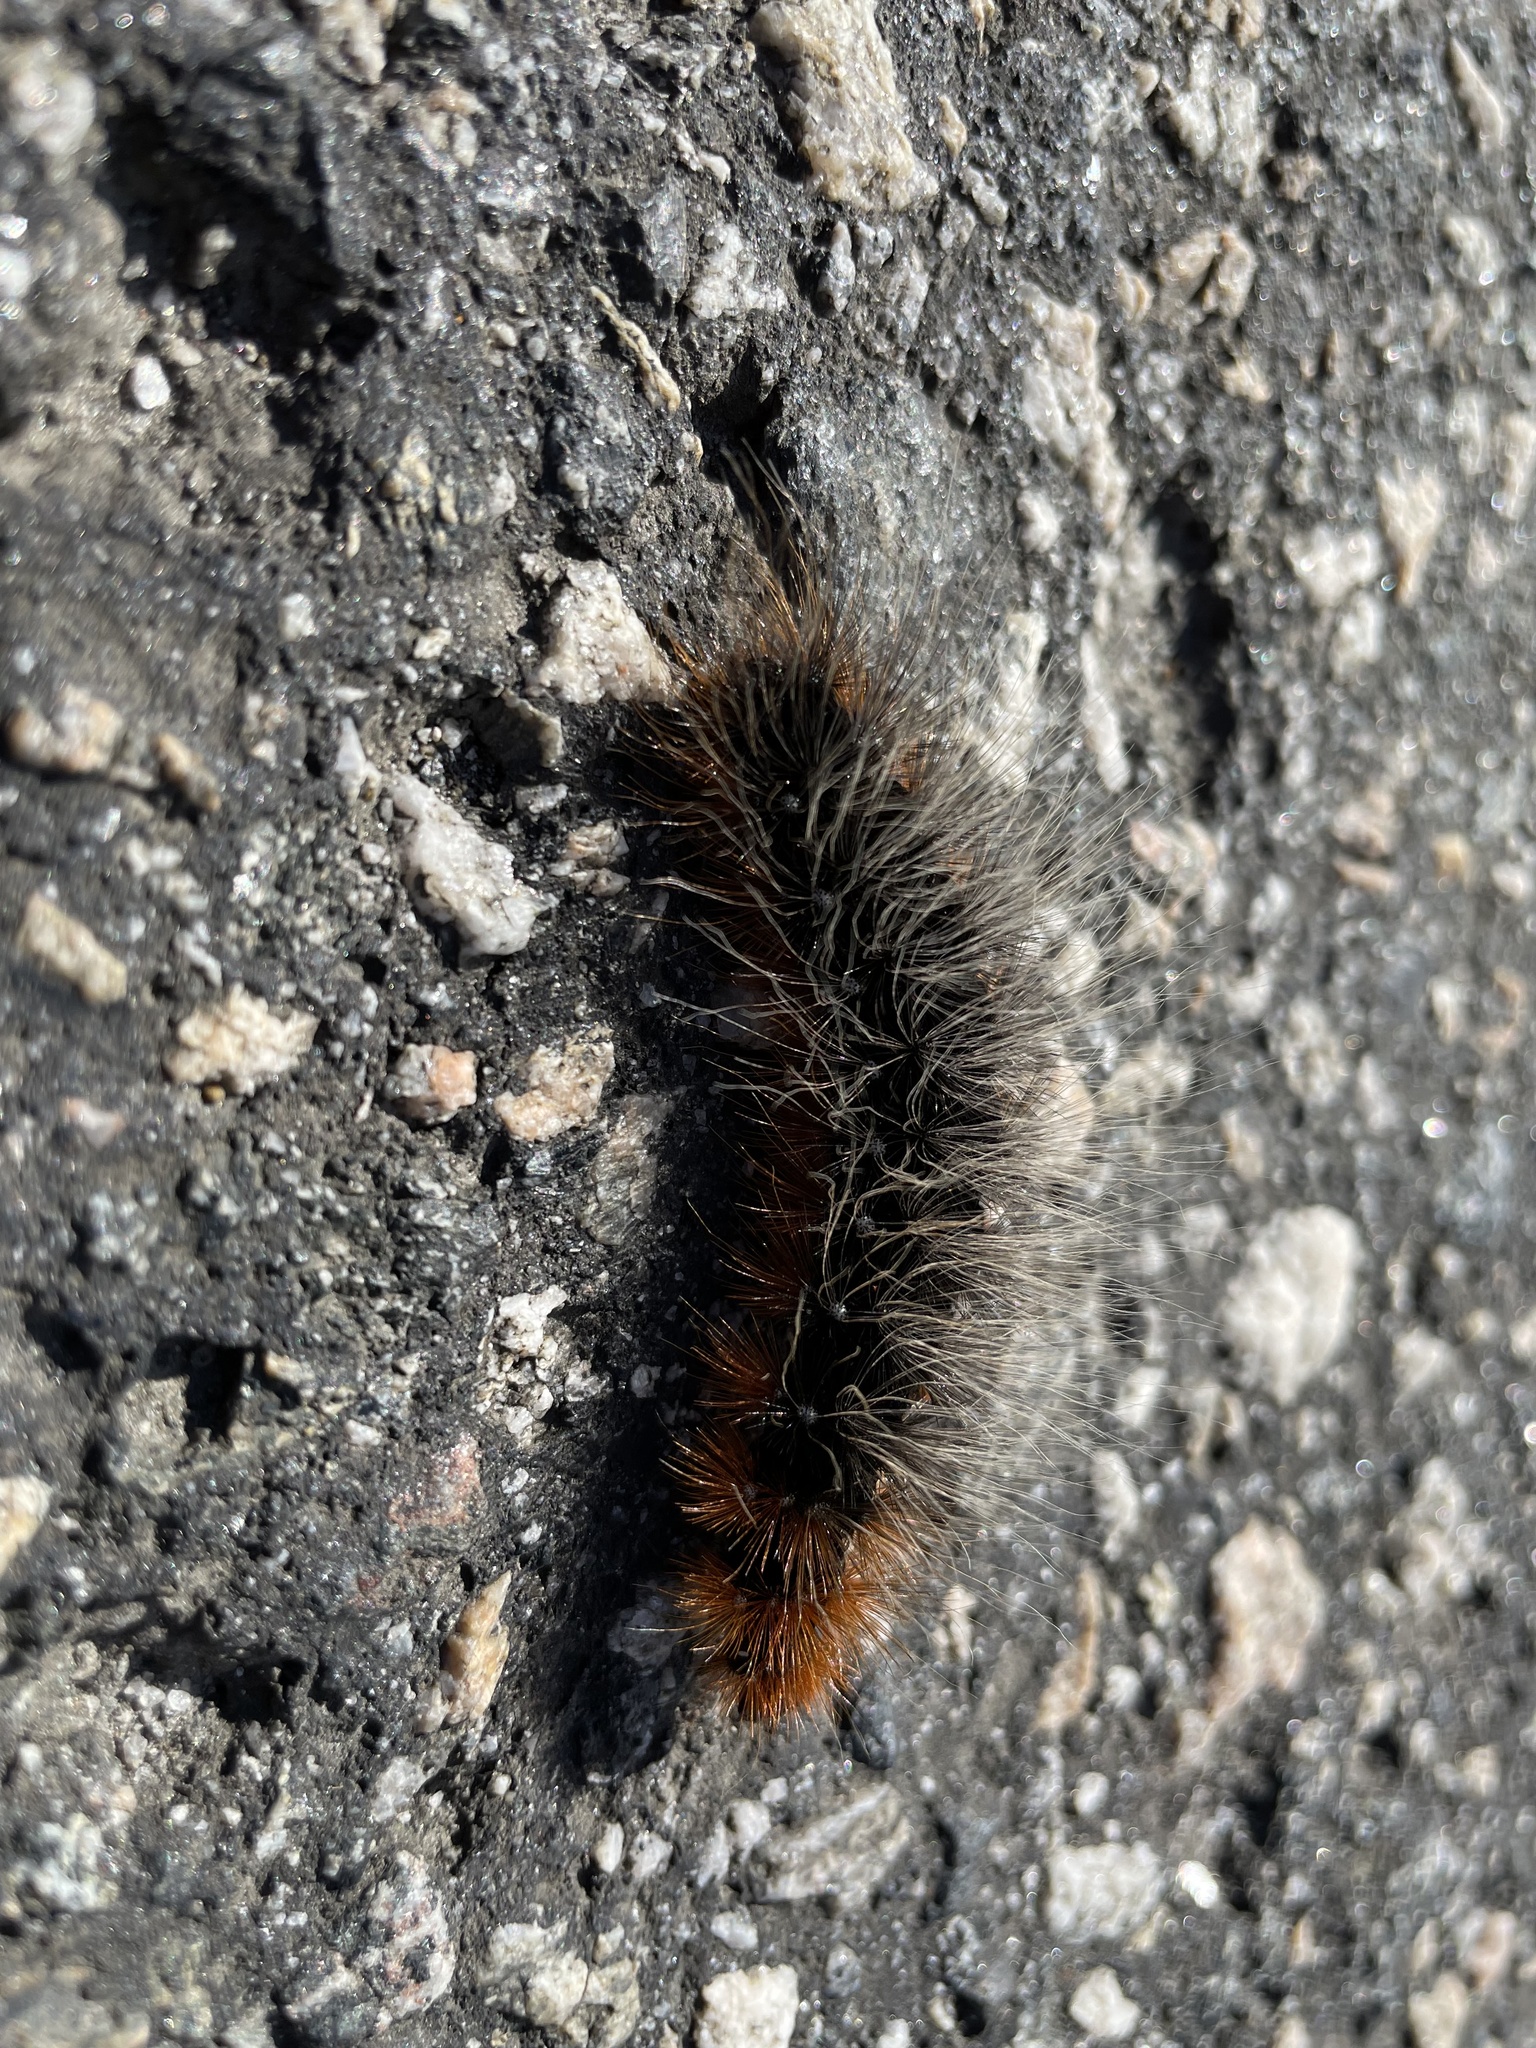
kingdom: Animalia
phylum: Arthropoda
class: Insecta
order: Lepidoptera
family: Erebidae
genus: Arctia
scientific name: Arctia caja
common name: Garden tiger
